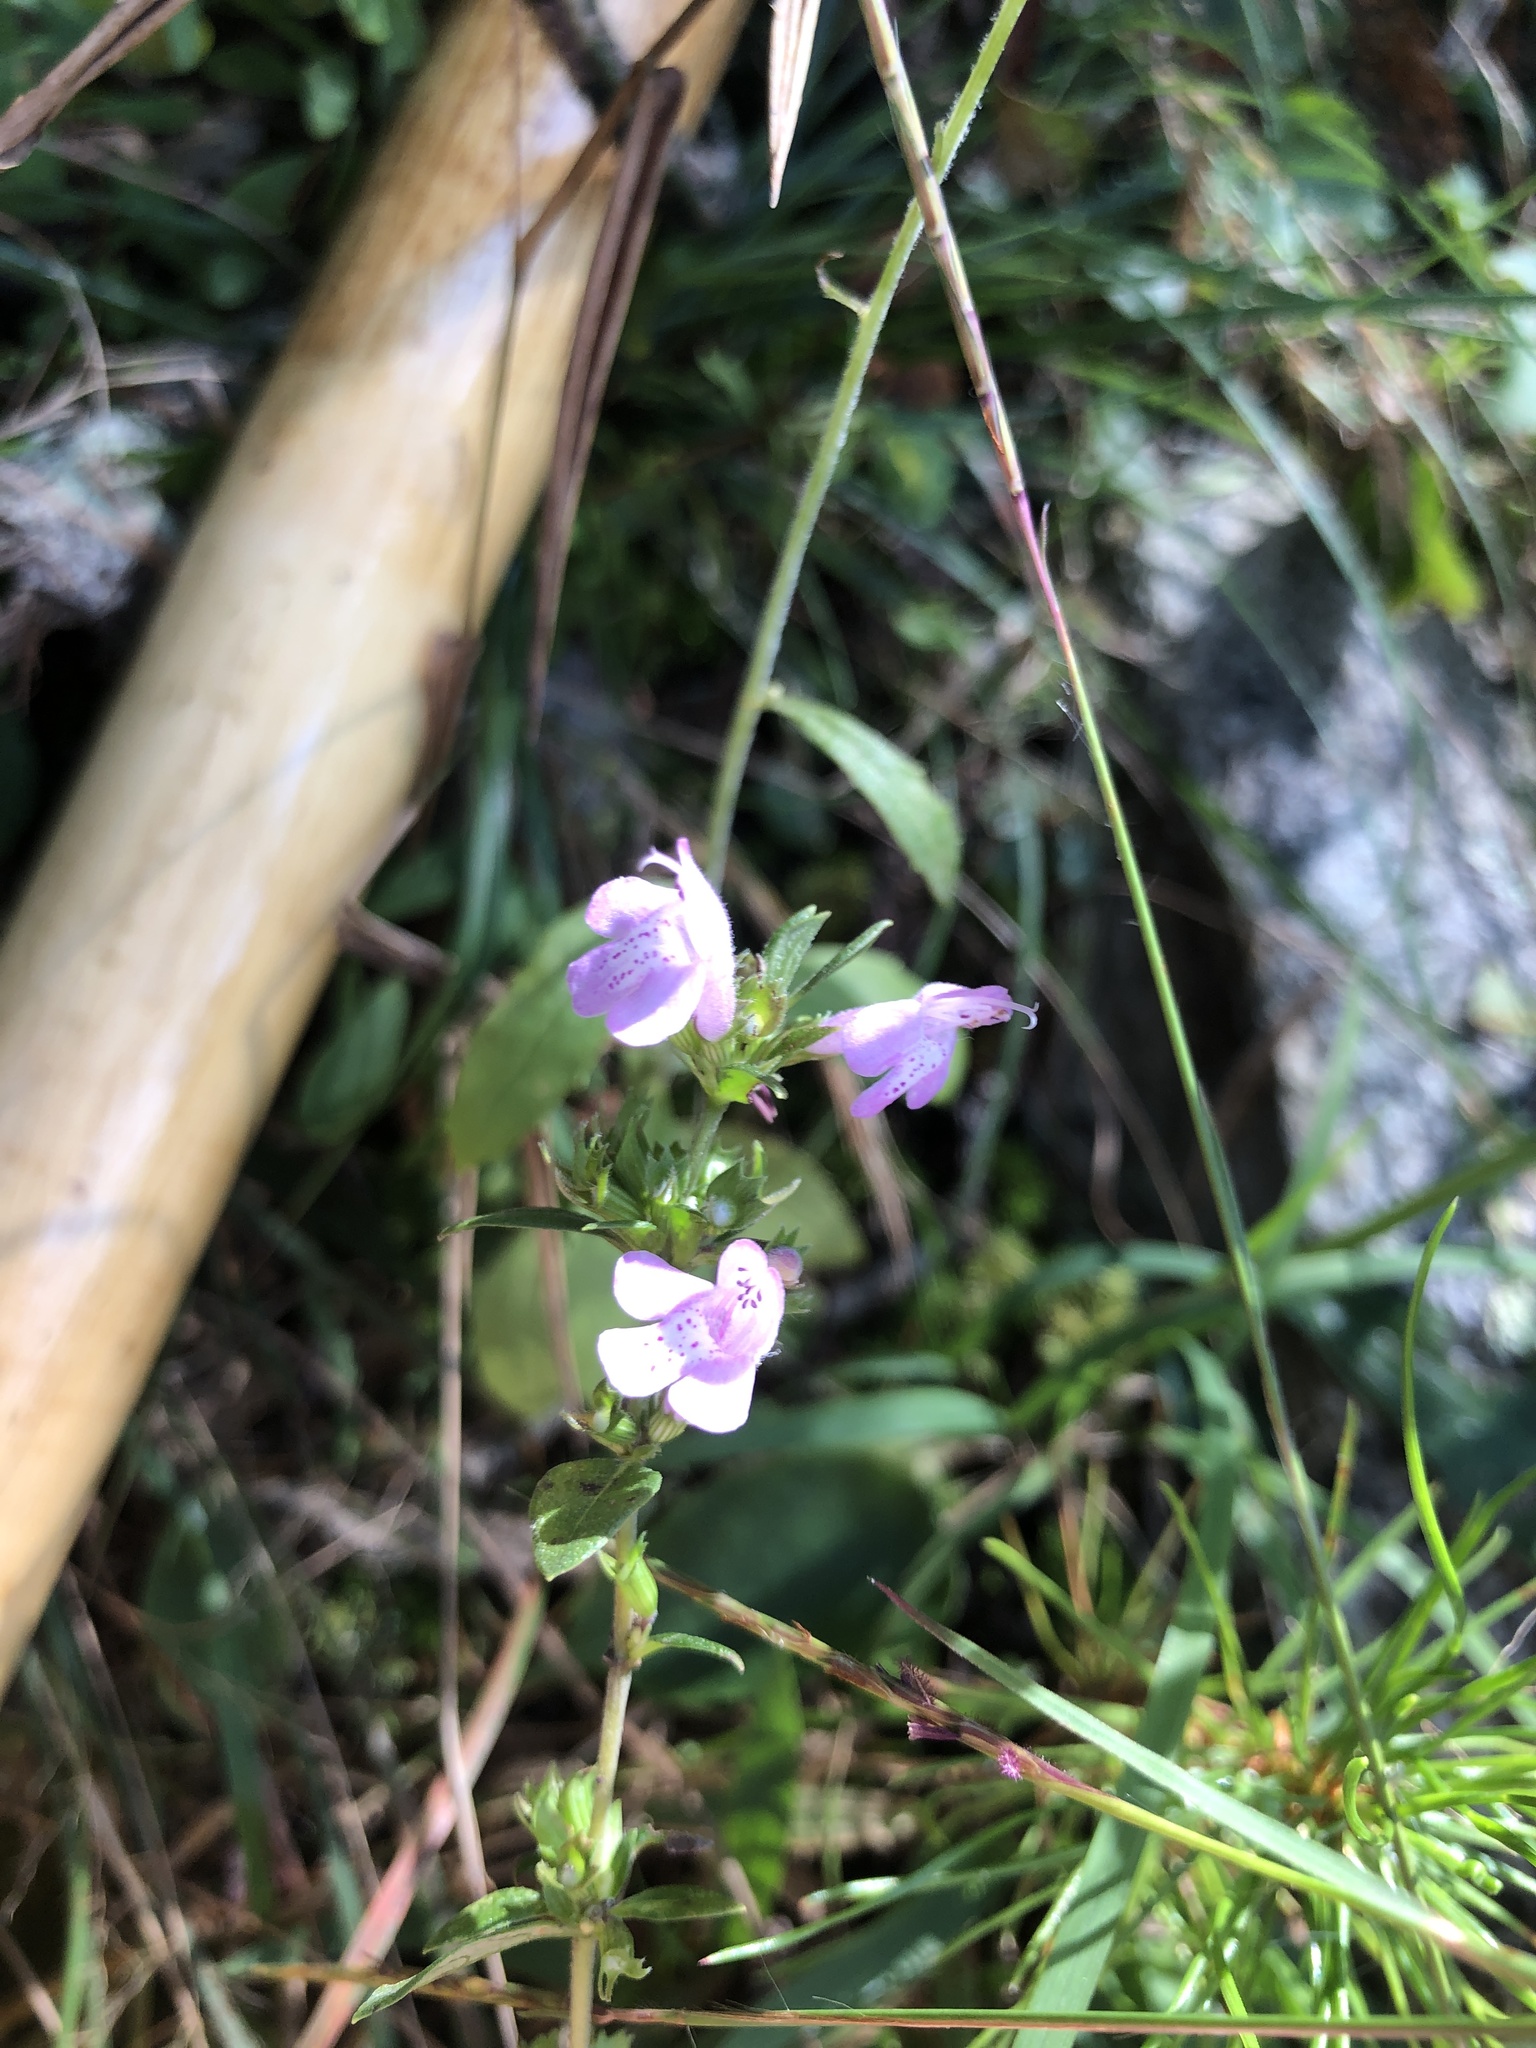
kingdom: Plantae
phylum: Tracheophyta
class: Magnoliopsida
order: Lamiales
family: Lamiaceae
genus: Clinopodium
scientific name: Clinopodium talladeganum
